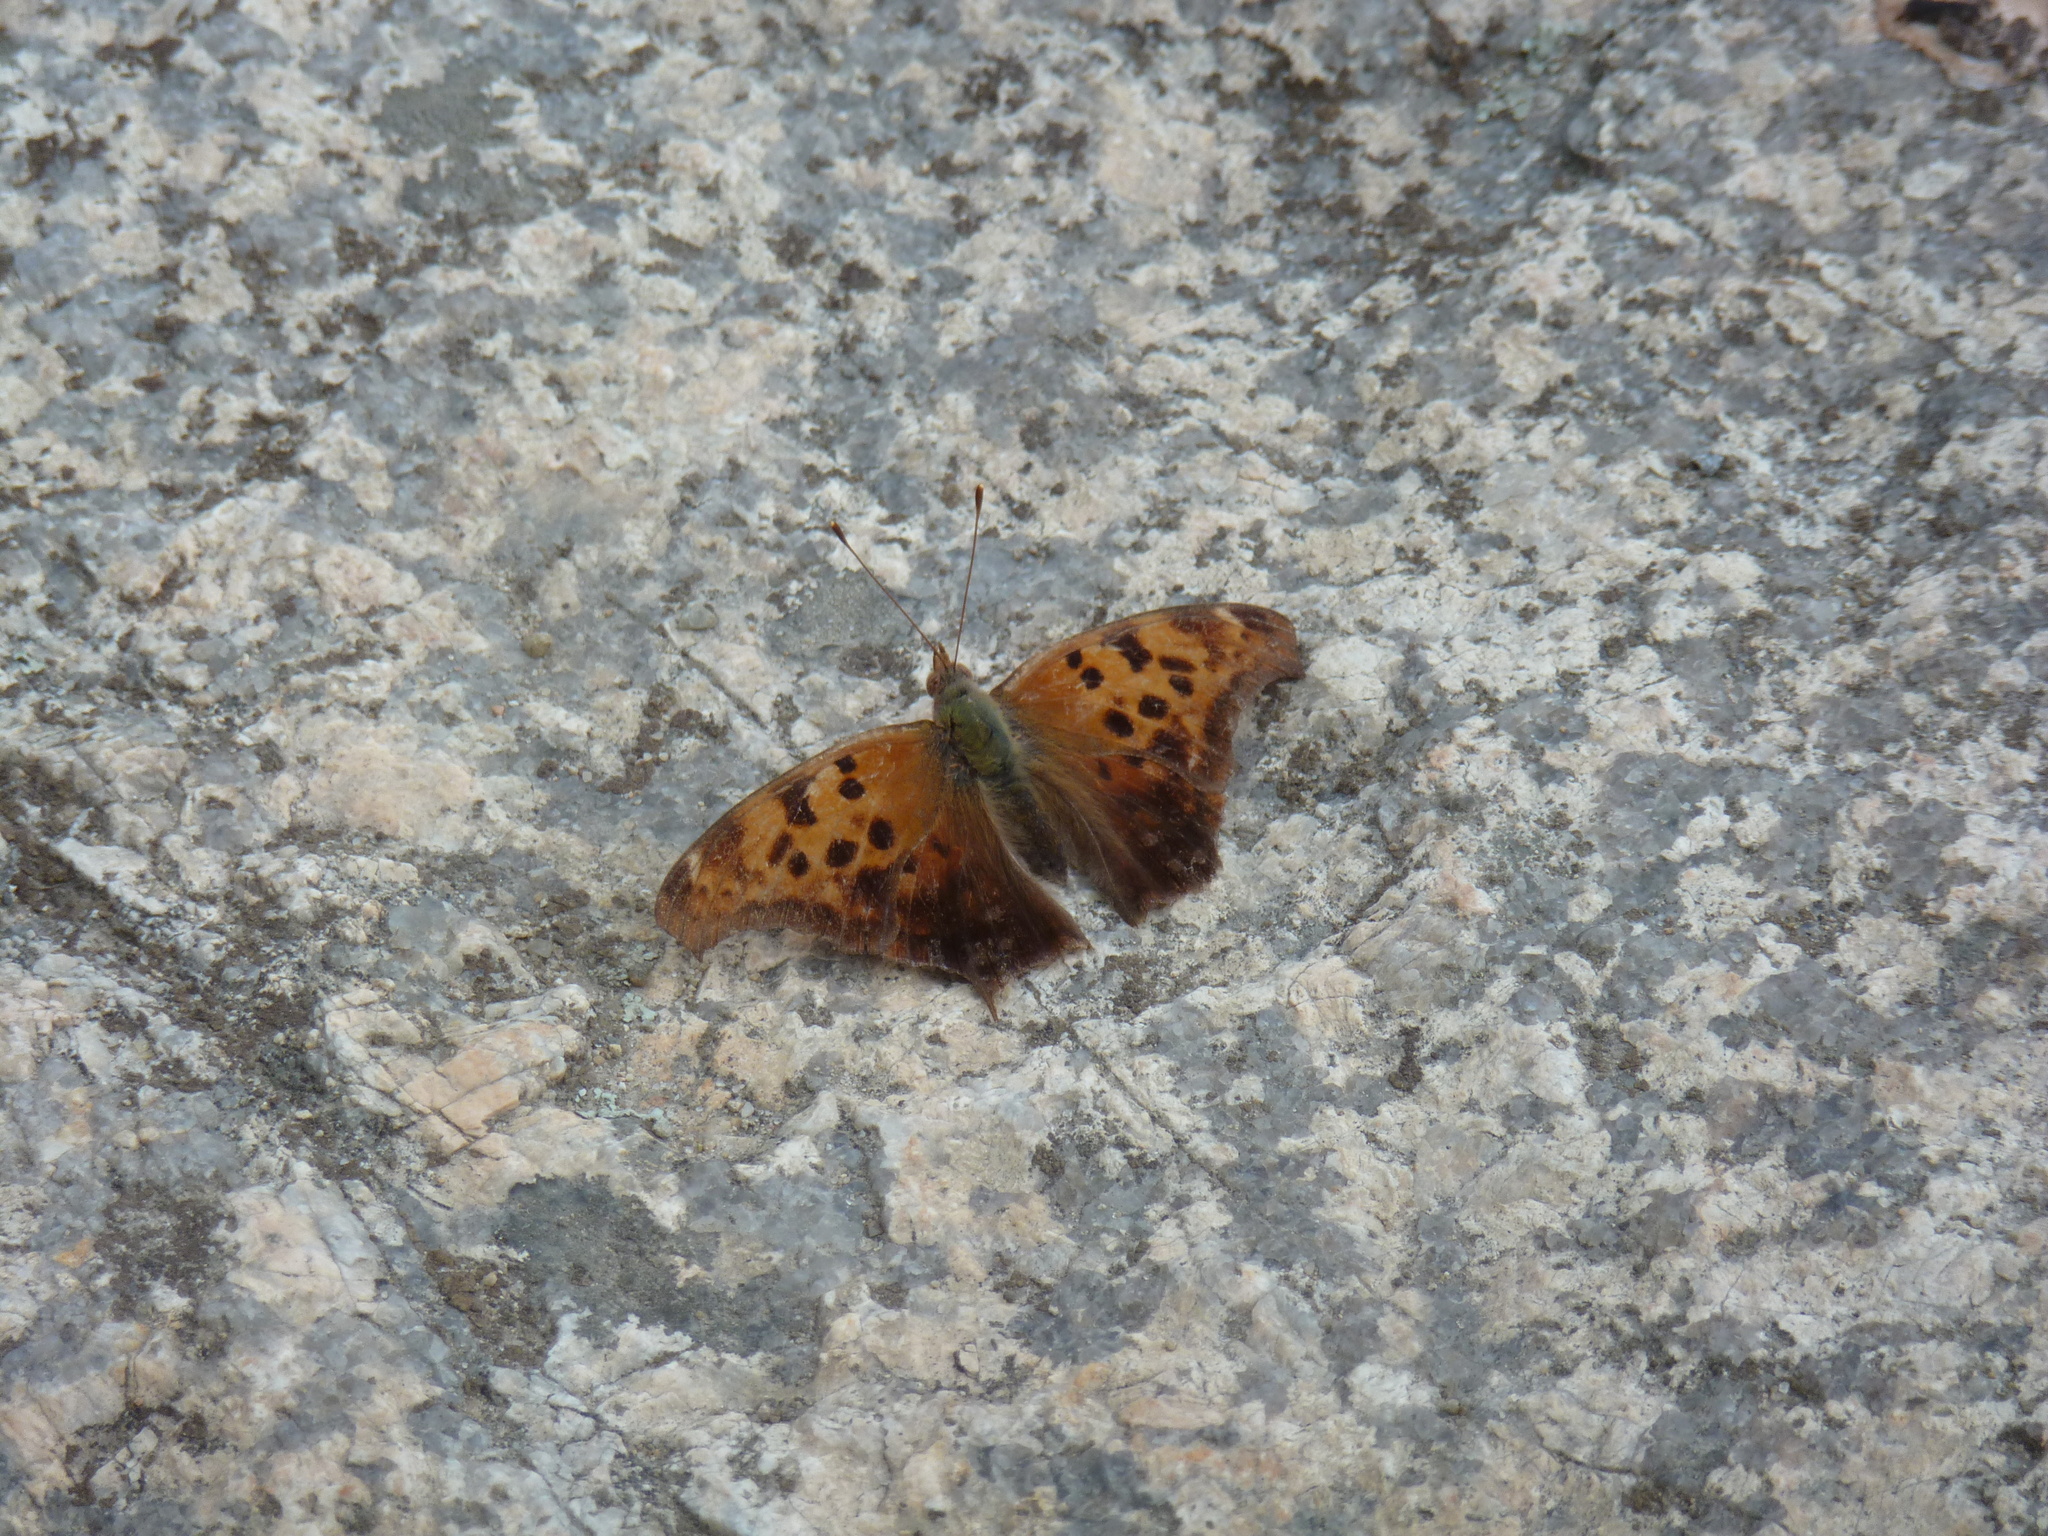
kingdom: Animalia
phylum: Arthropoda
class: Insecta
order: Lepidoptera
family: Nymphalidae
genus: Polygonia
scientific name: Polygonia interrogationis
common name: Question mark
